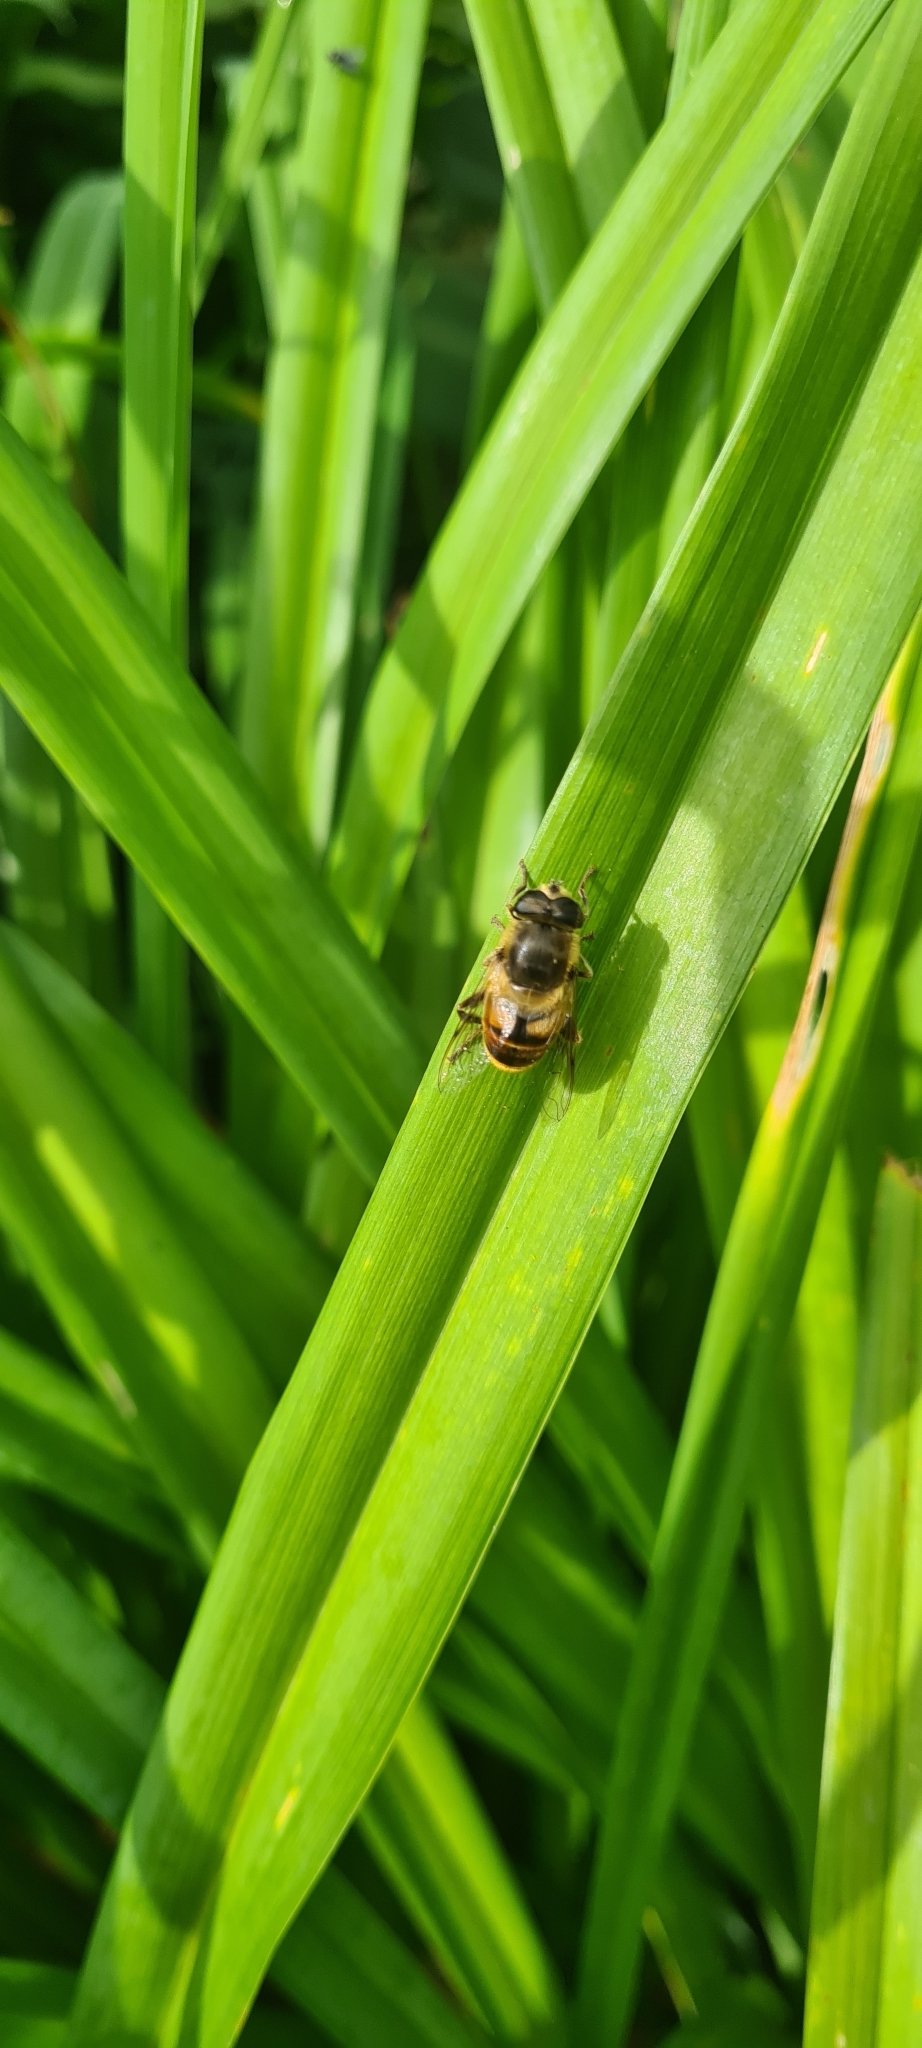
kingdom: Animalia
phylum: Arthropoda
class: Insecta
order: Diptera
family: Syrphidae
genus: Eristalis
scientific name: Eristalis tenax
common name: Drone fly
